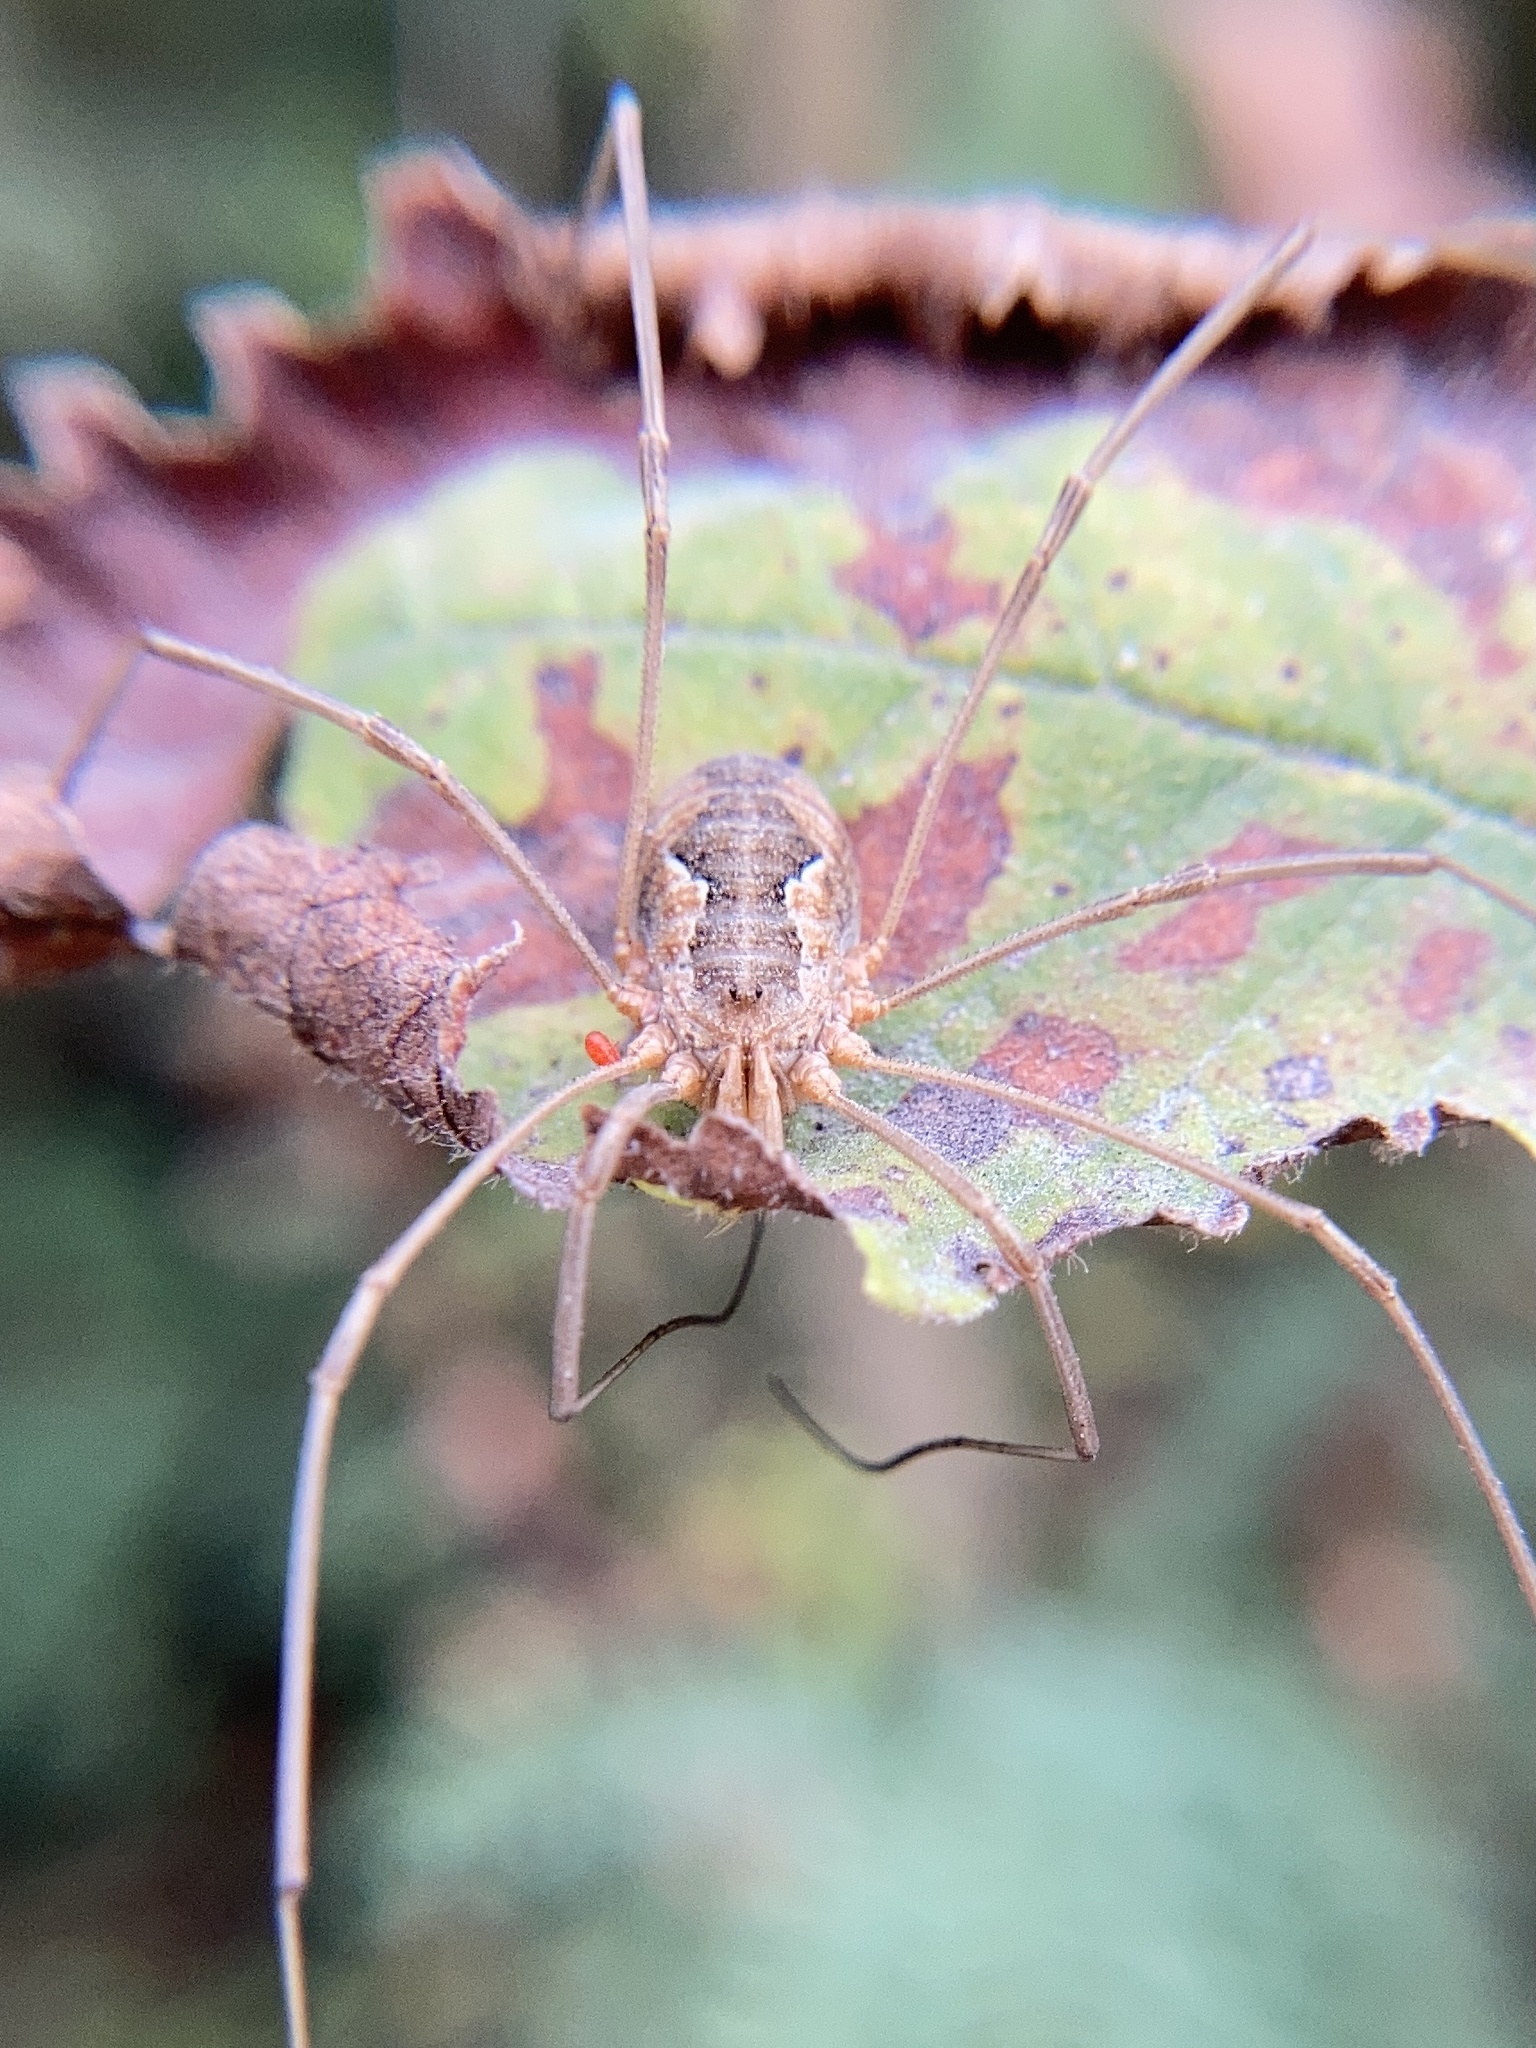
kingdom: Animalia
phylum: Arthropoda
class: Arachnida
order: Opiliones
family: Phalangiidae
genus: Phalangium
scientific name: Phalangium opilio
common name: Daddy longleg
